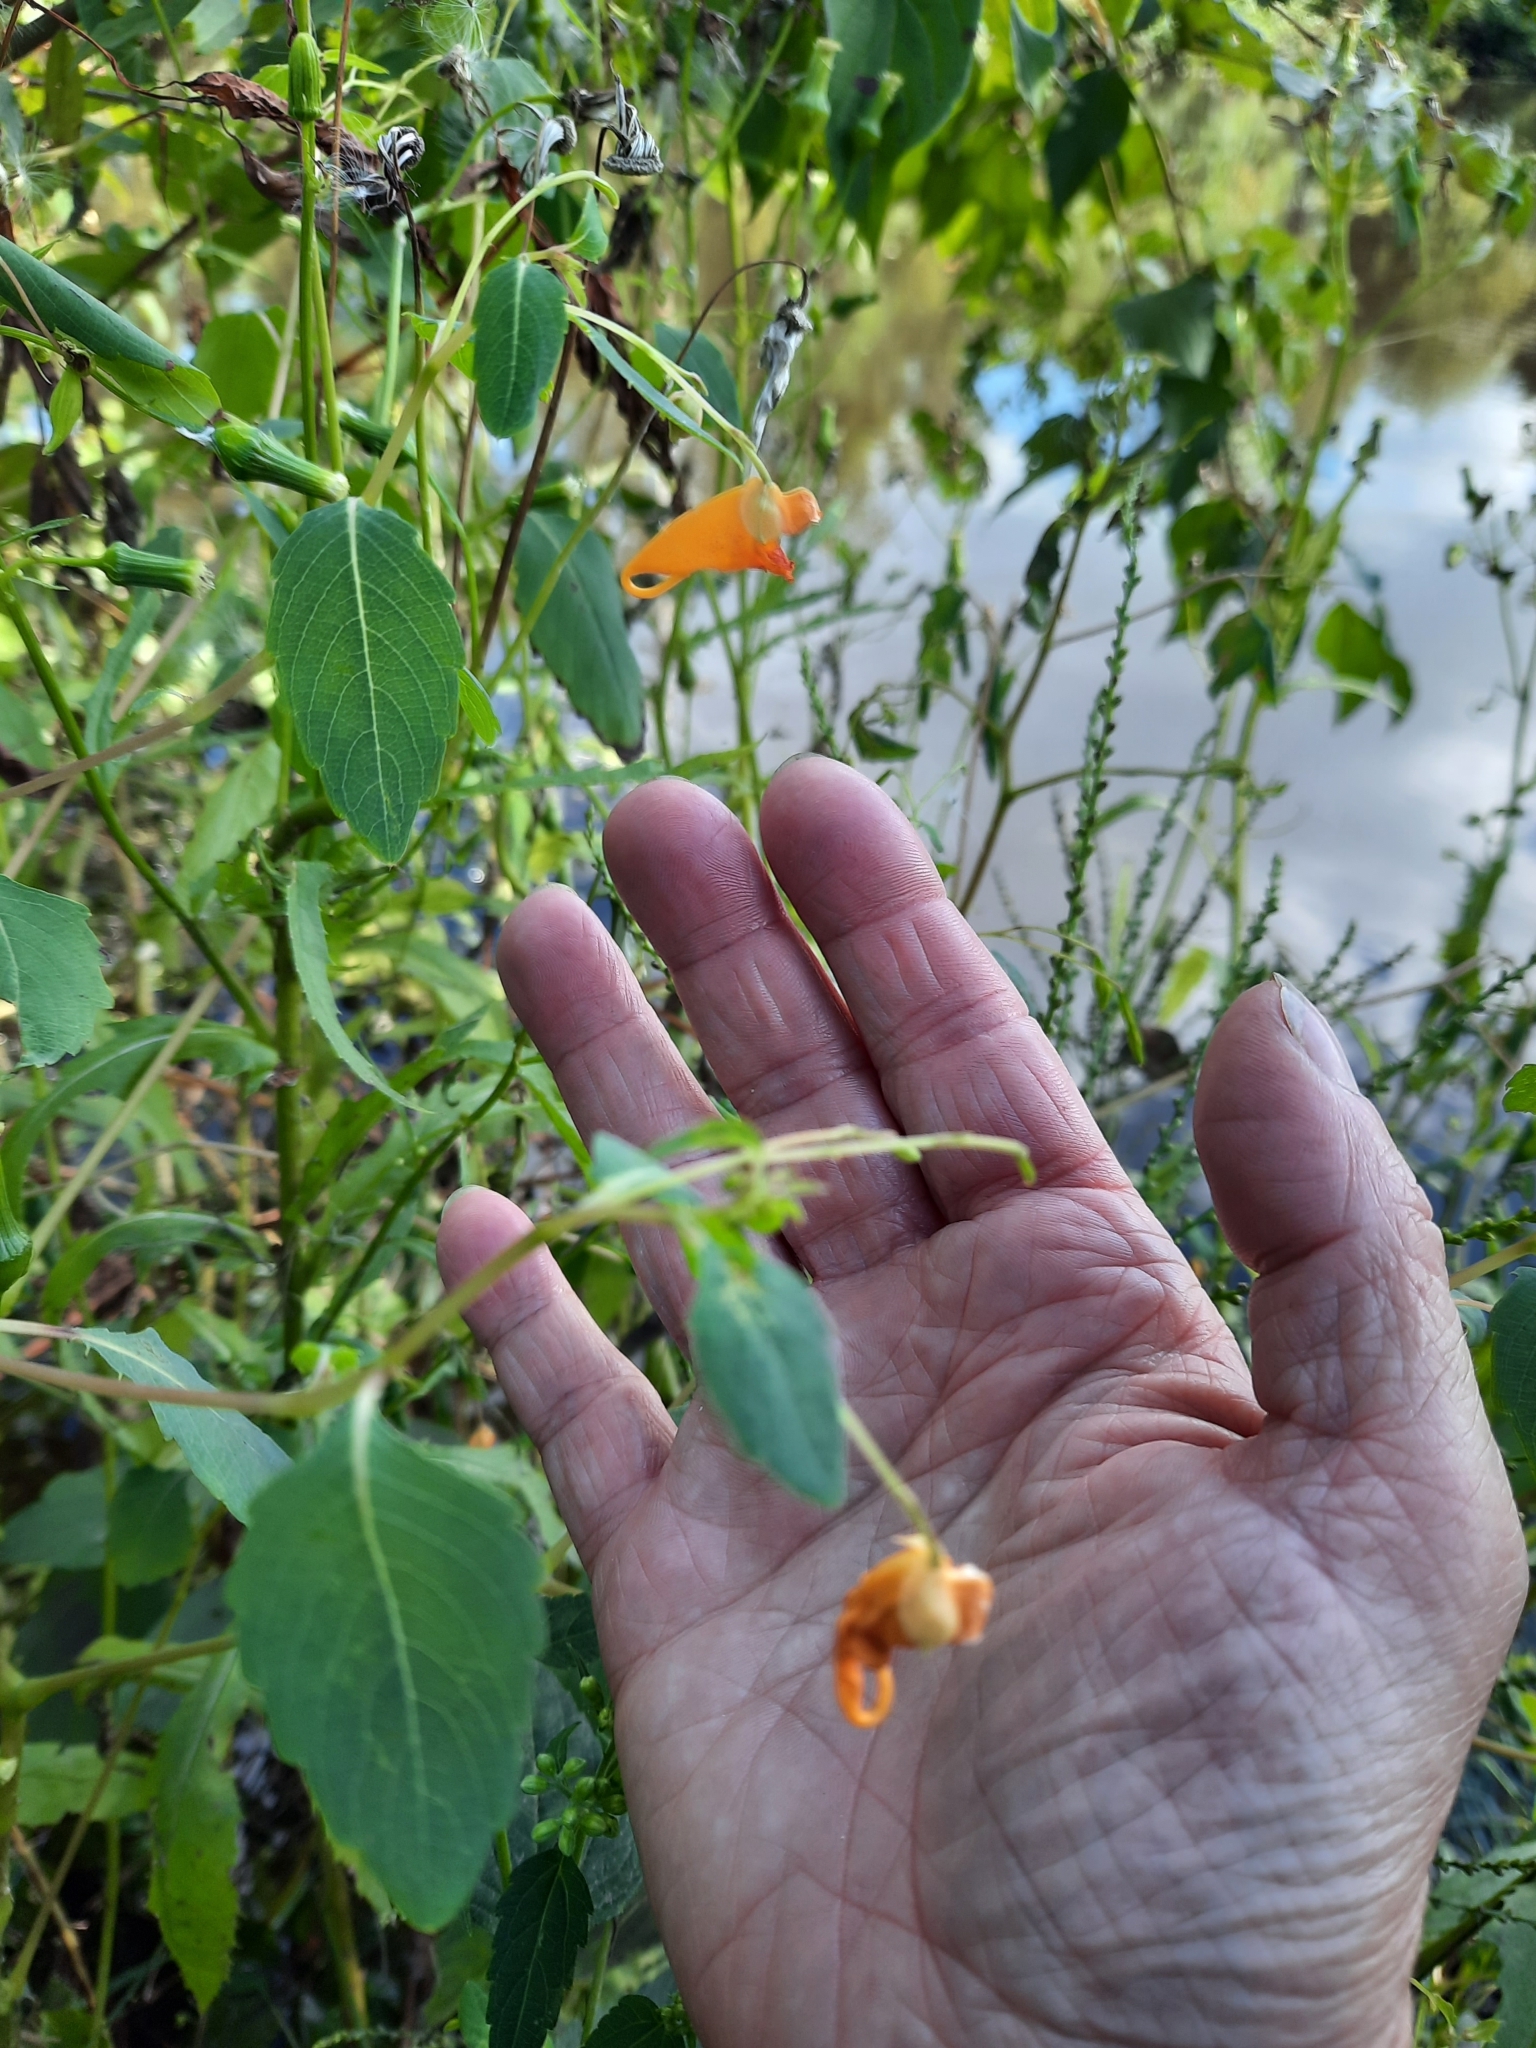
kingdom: Plantae
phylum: Tracheophyta
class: Magnoliopsida
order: Ericales
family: Balsaminaceae
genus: Impatiens
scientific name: Impatiens capensis
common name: Orange balsam
